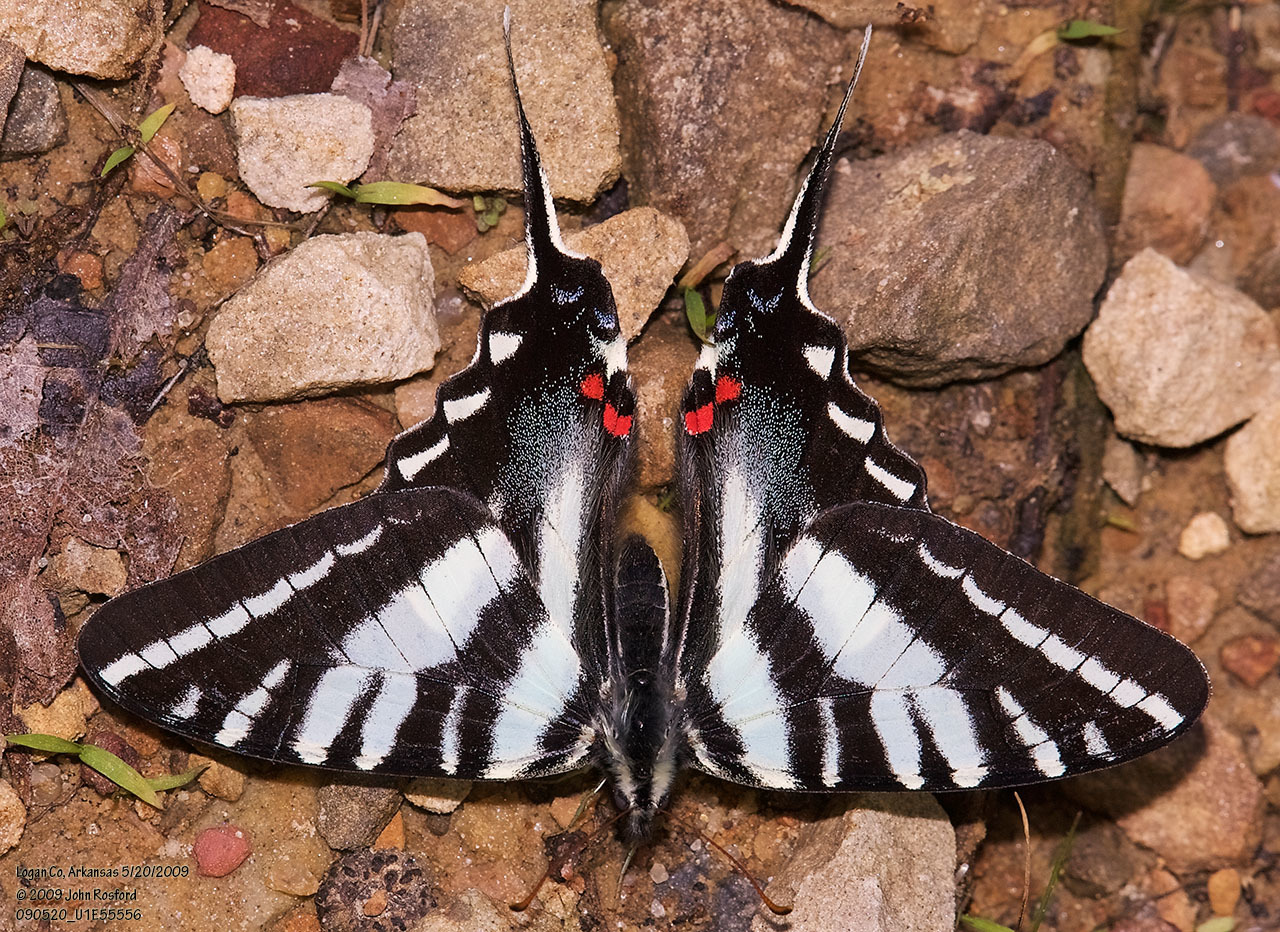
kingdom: Animalia
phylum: Arthropoda
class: Insecta
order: Lepidoptera
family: Papilionidae
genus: Protographium
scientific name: Protographium marcellus
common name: Zebra swallowtail
